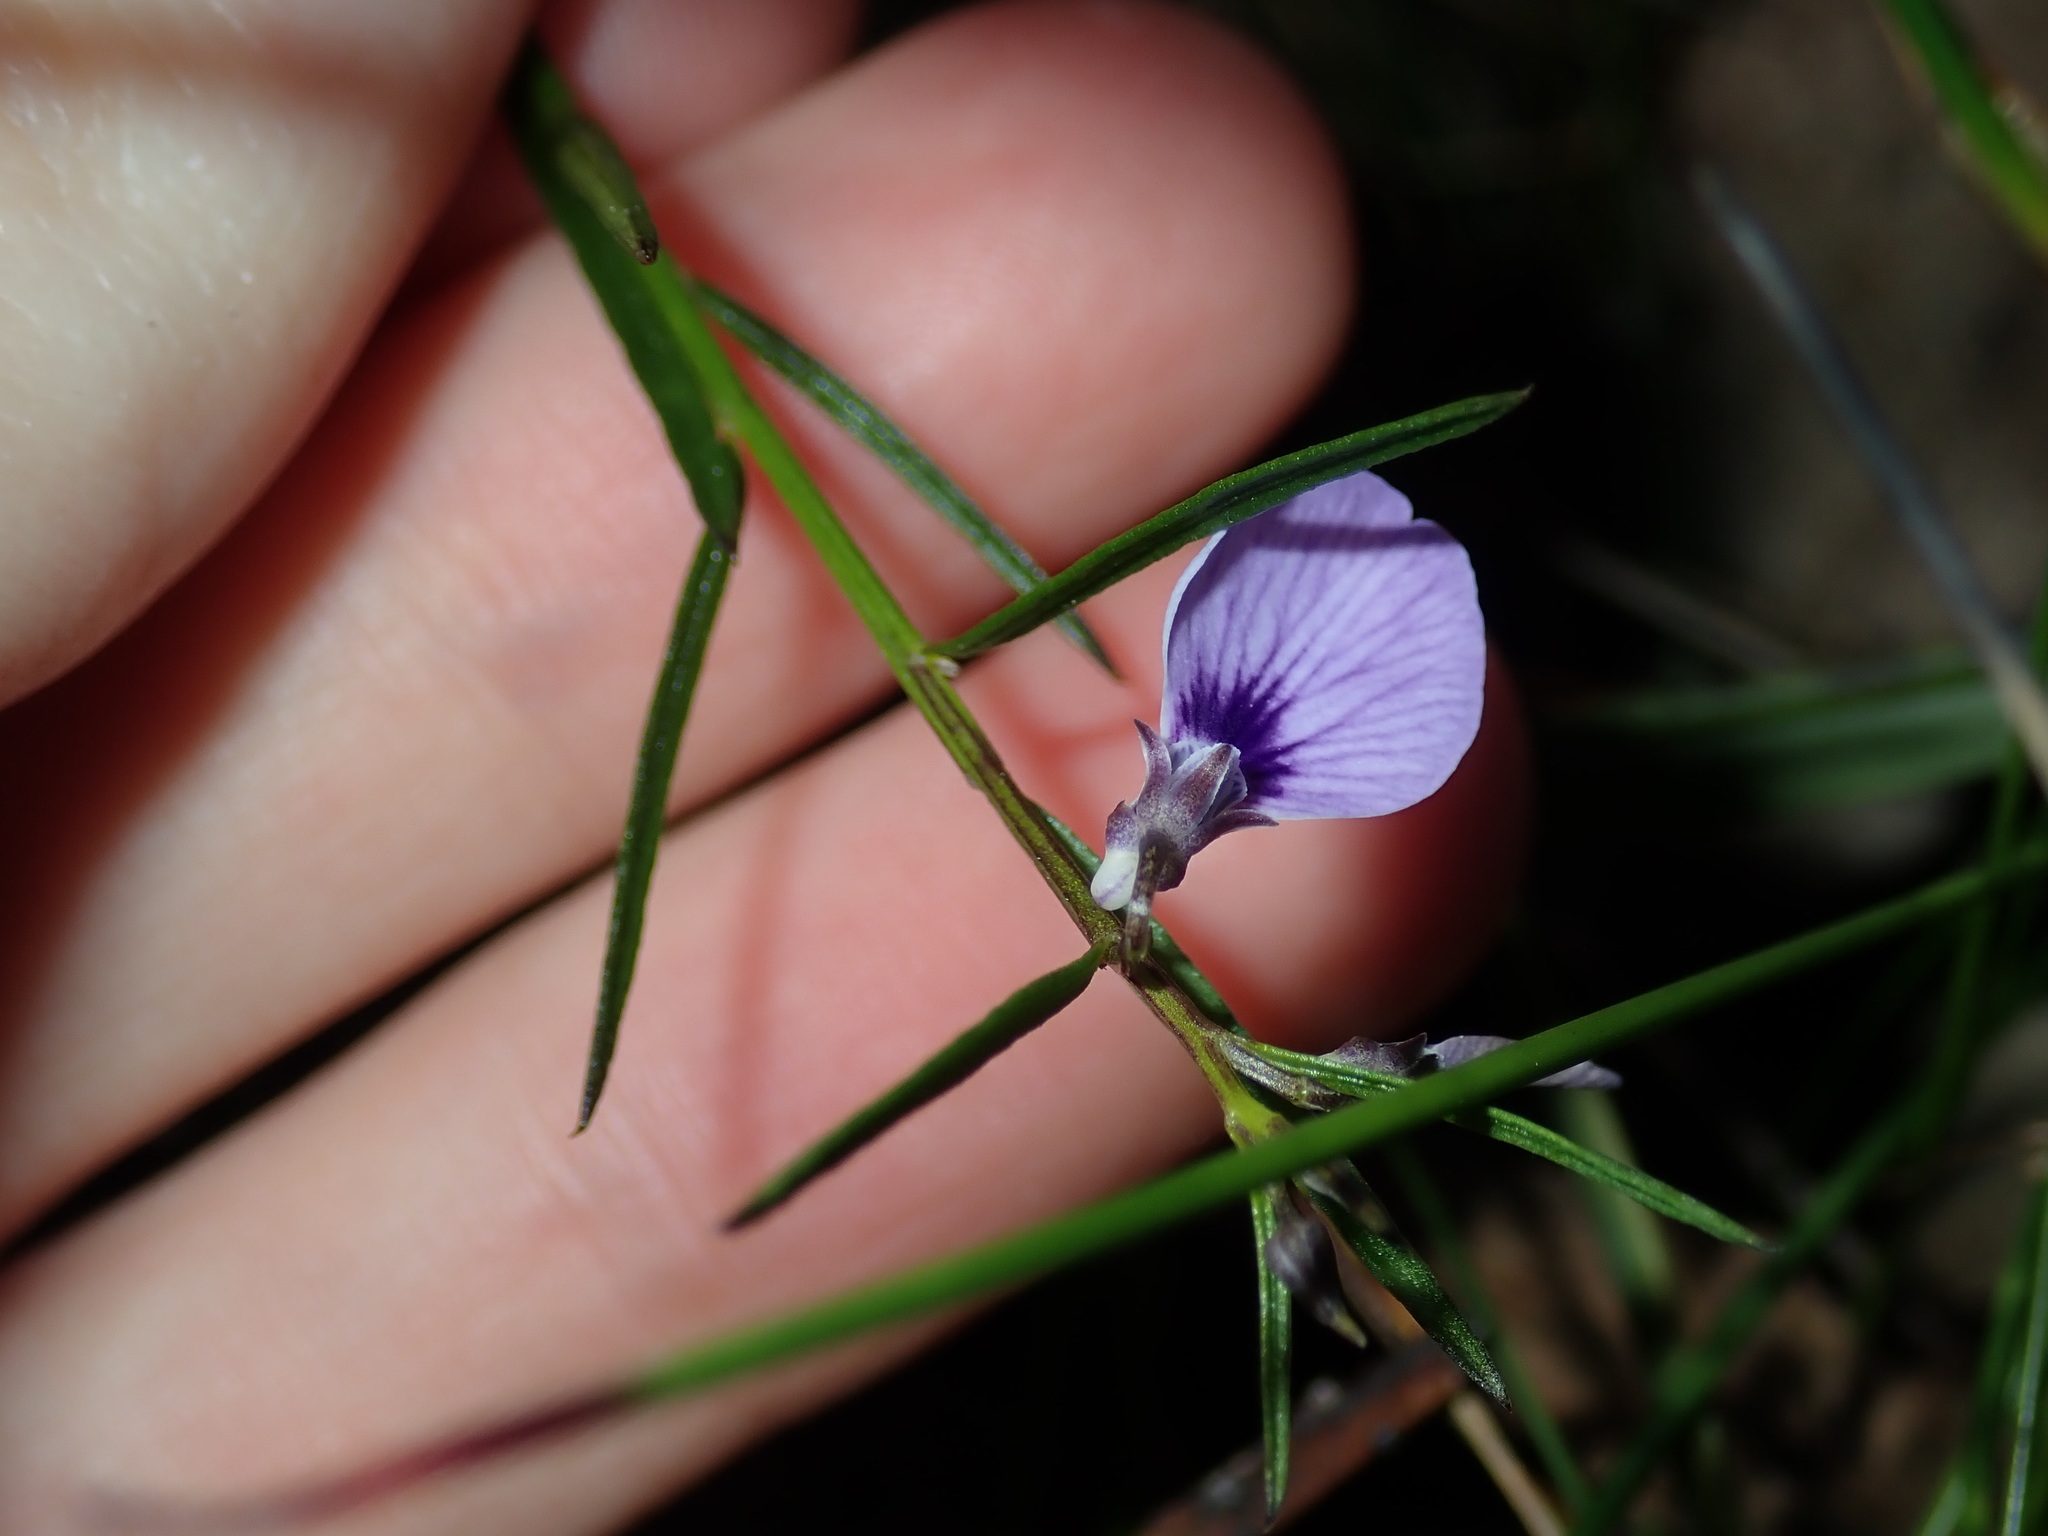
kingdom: Plantae
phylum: Tracheophyta
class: Magnoliopsida
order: Malpighiales
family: Violaceae
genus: Pigea
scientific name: Pigea monopetala
